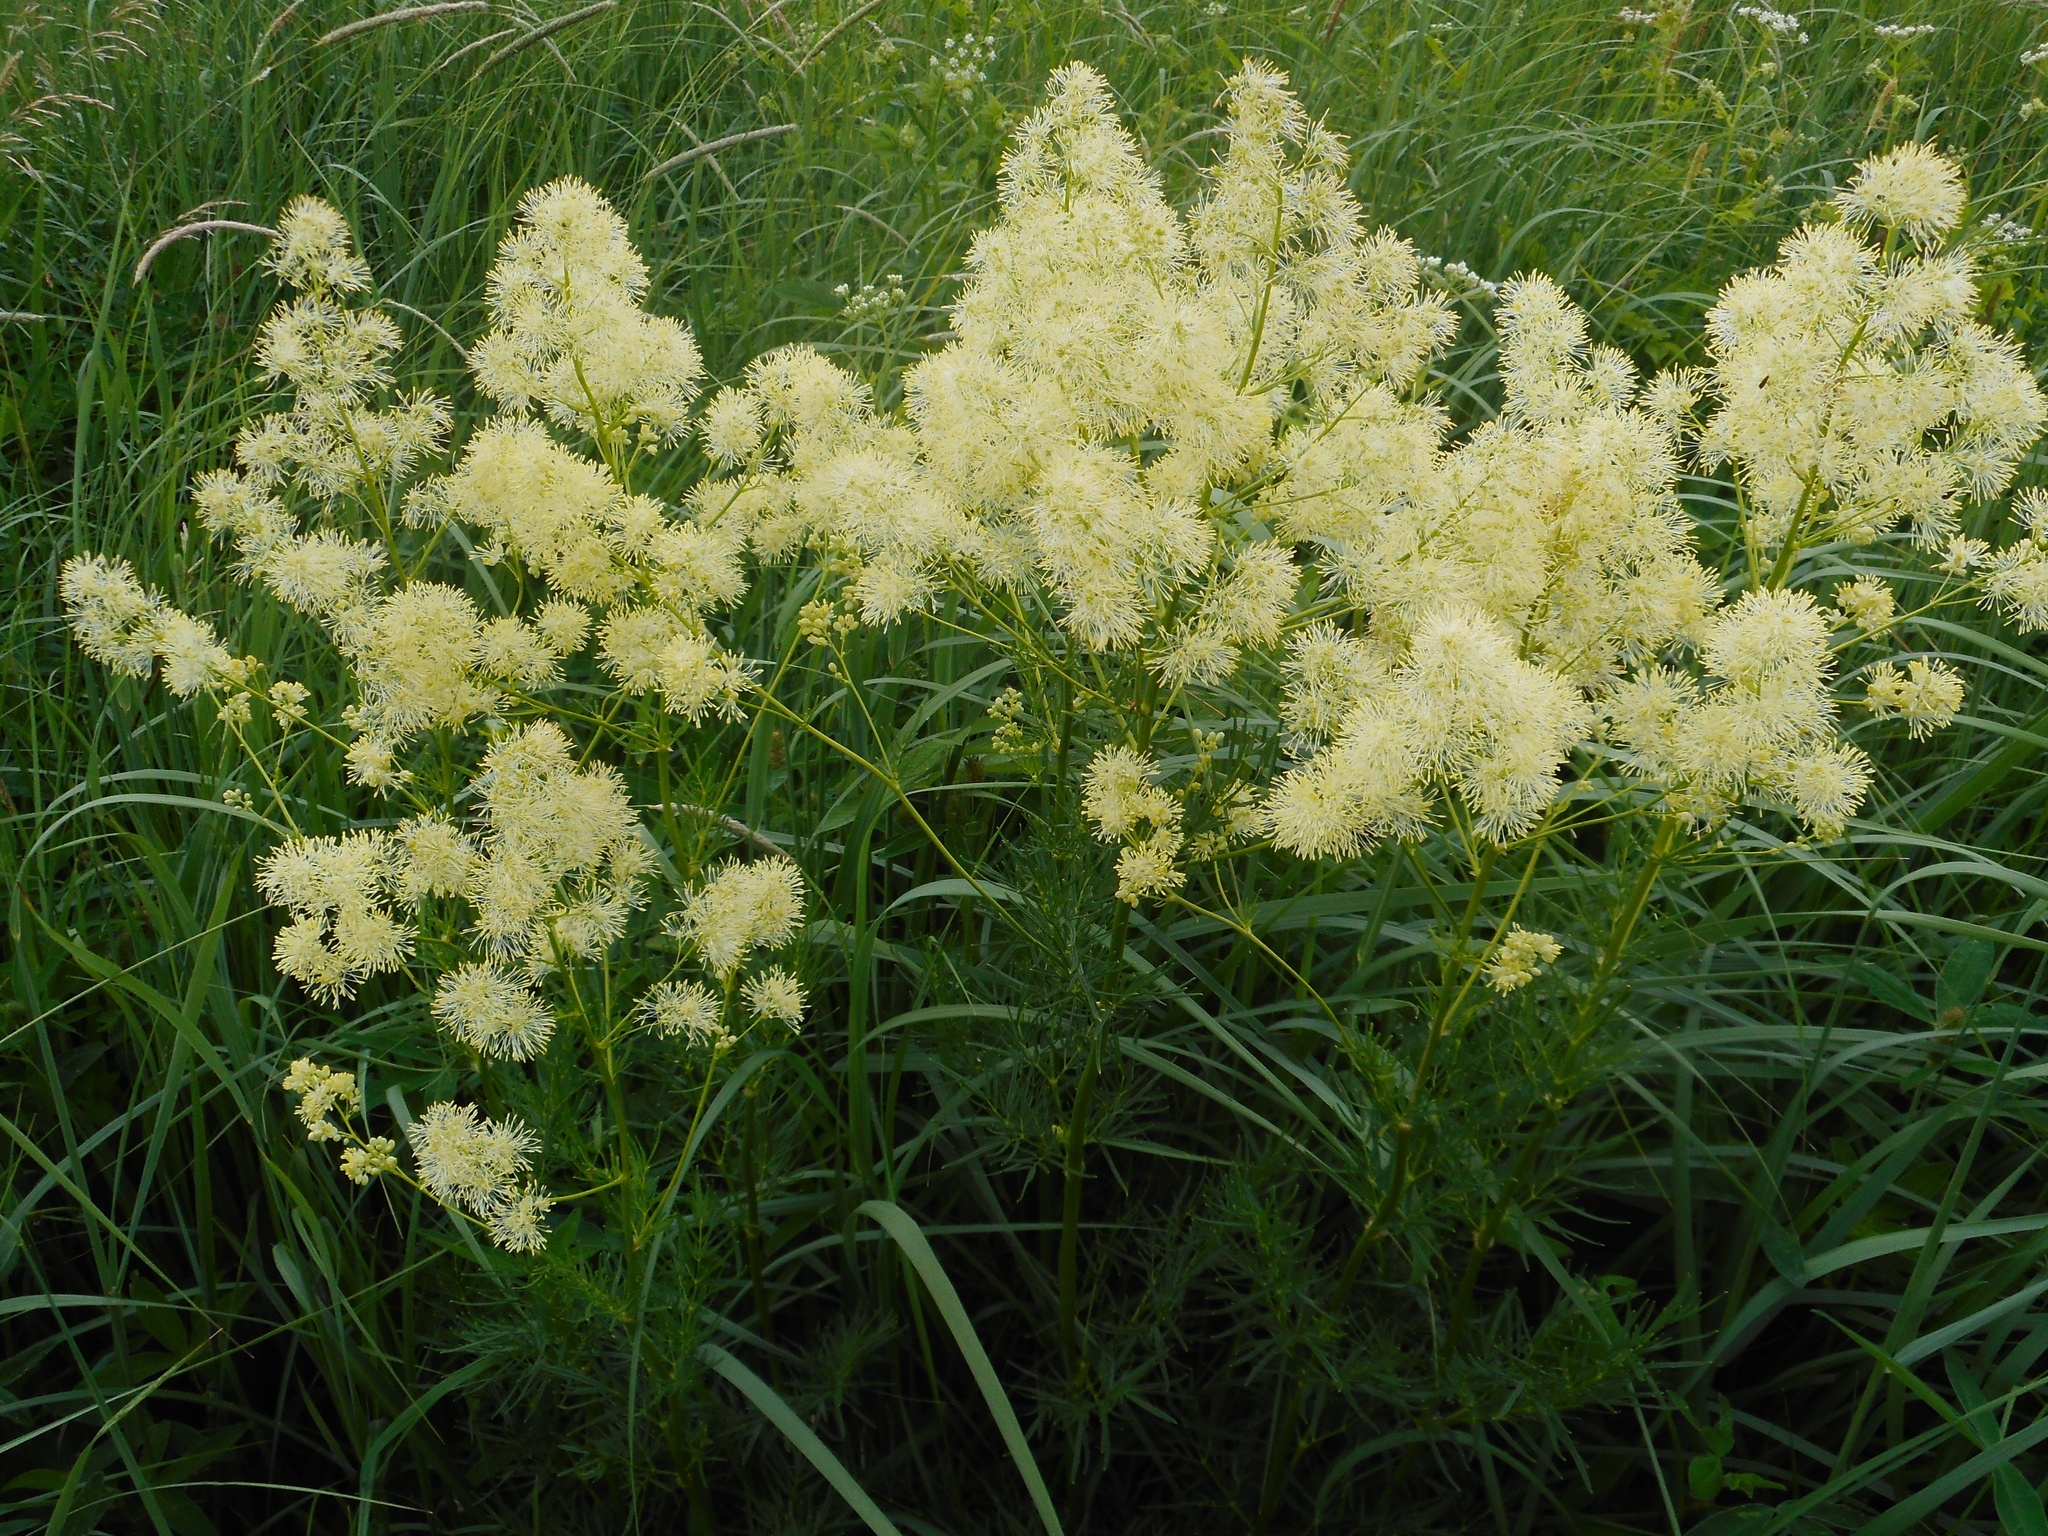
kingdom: Plantae
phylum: Tracheophyta
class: Magnoliopsida
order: Ranunculales
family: Ranunculaceae
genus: Thalictrum
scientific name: Thalictrum lucidum
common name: Shining meadow-rue
